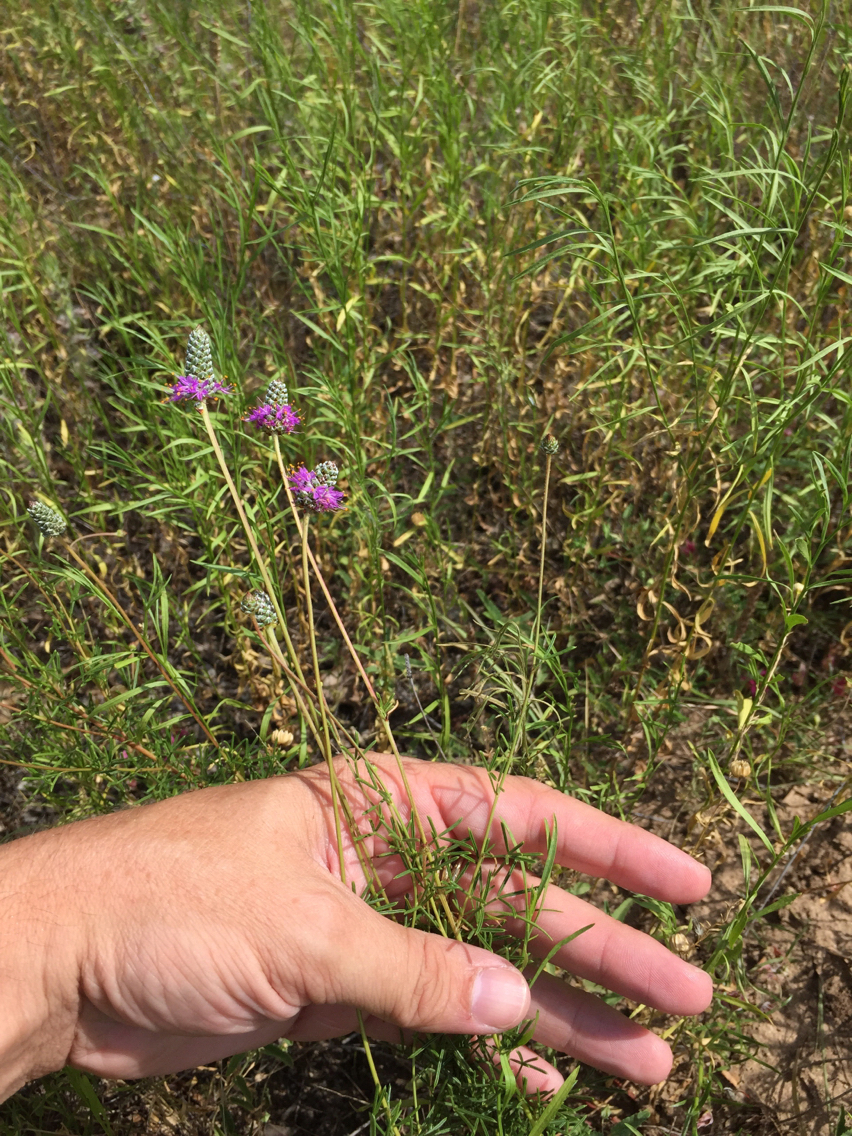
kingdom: Plantae
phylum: Tracheophyta
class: Magnoliopsida
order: Fabales
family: Fabaceae
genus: Dalea
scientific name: Dalea tenuis
